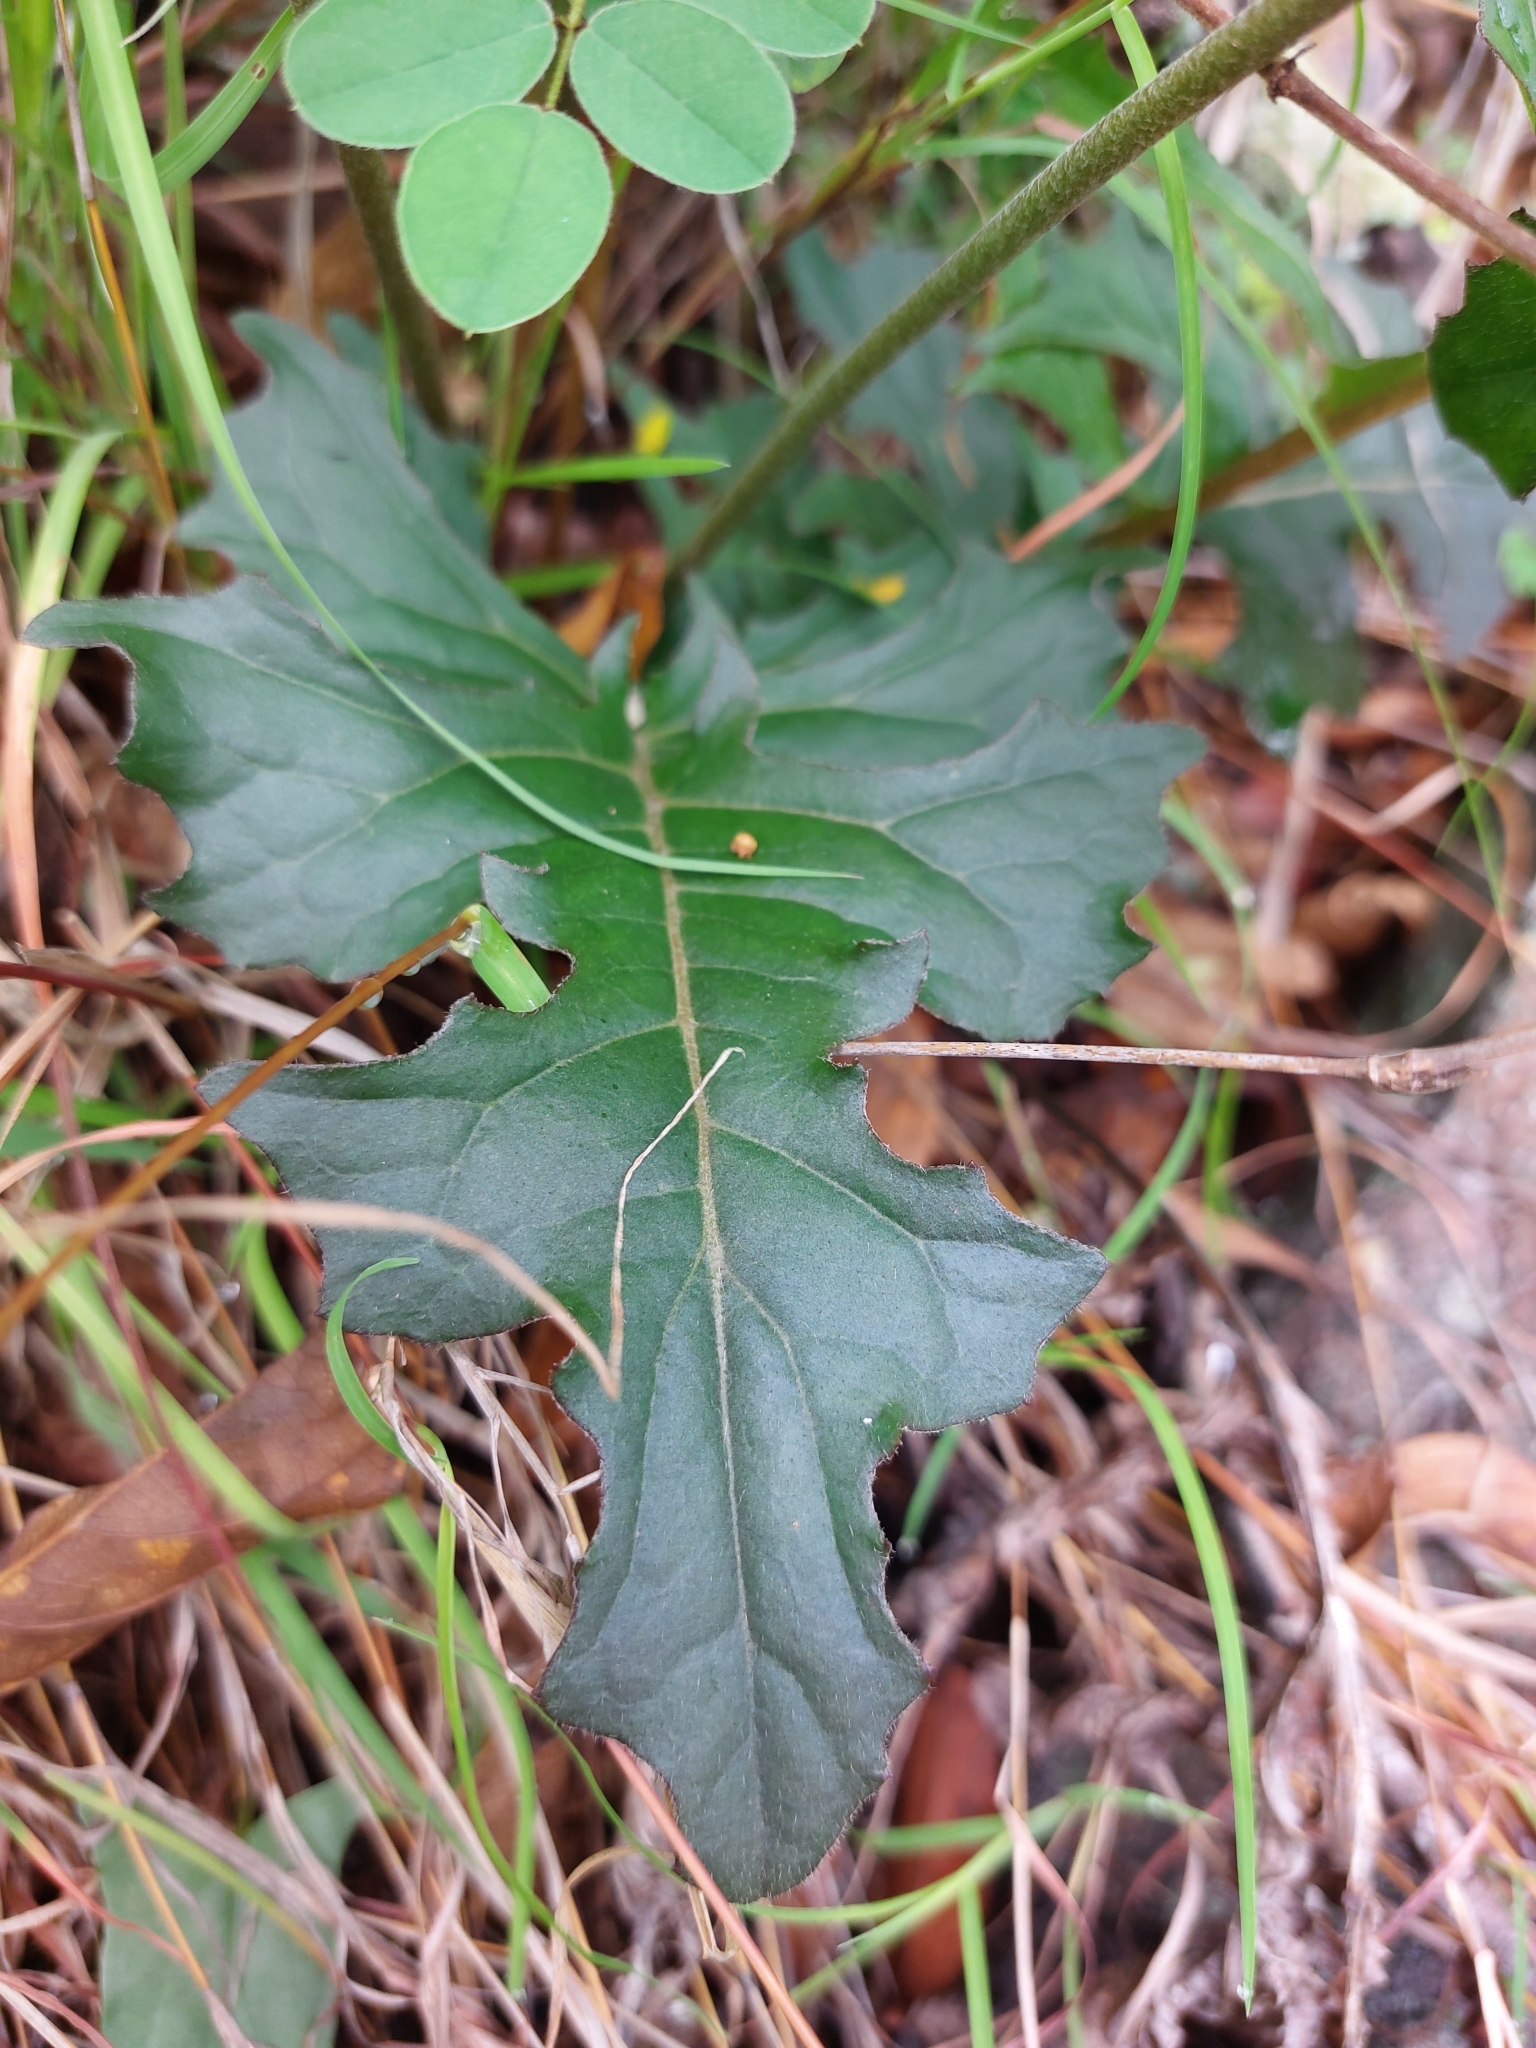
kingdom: Plantae
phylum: Tracheophyta
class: Magnoliopsida
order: Asterales
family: Asteraceae
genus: Gerbera
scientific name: Gerbera jamesonii
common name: African daisy
